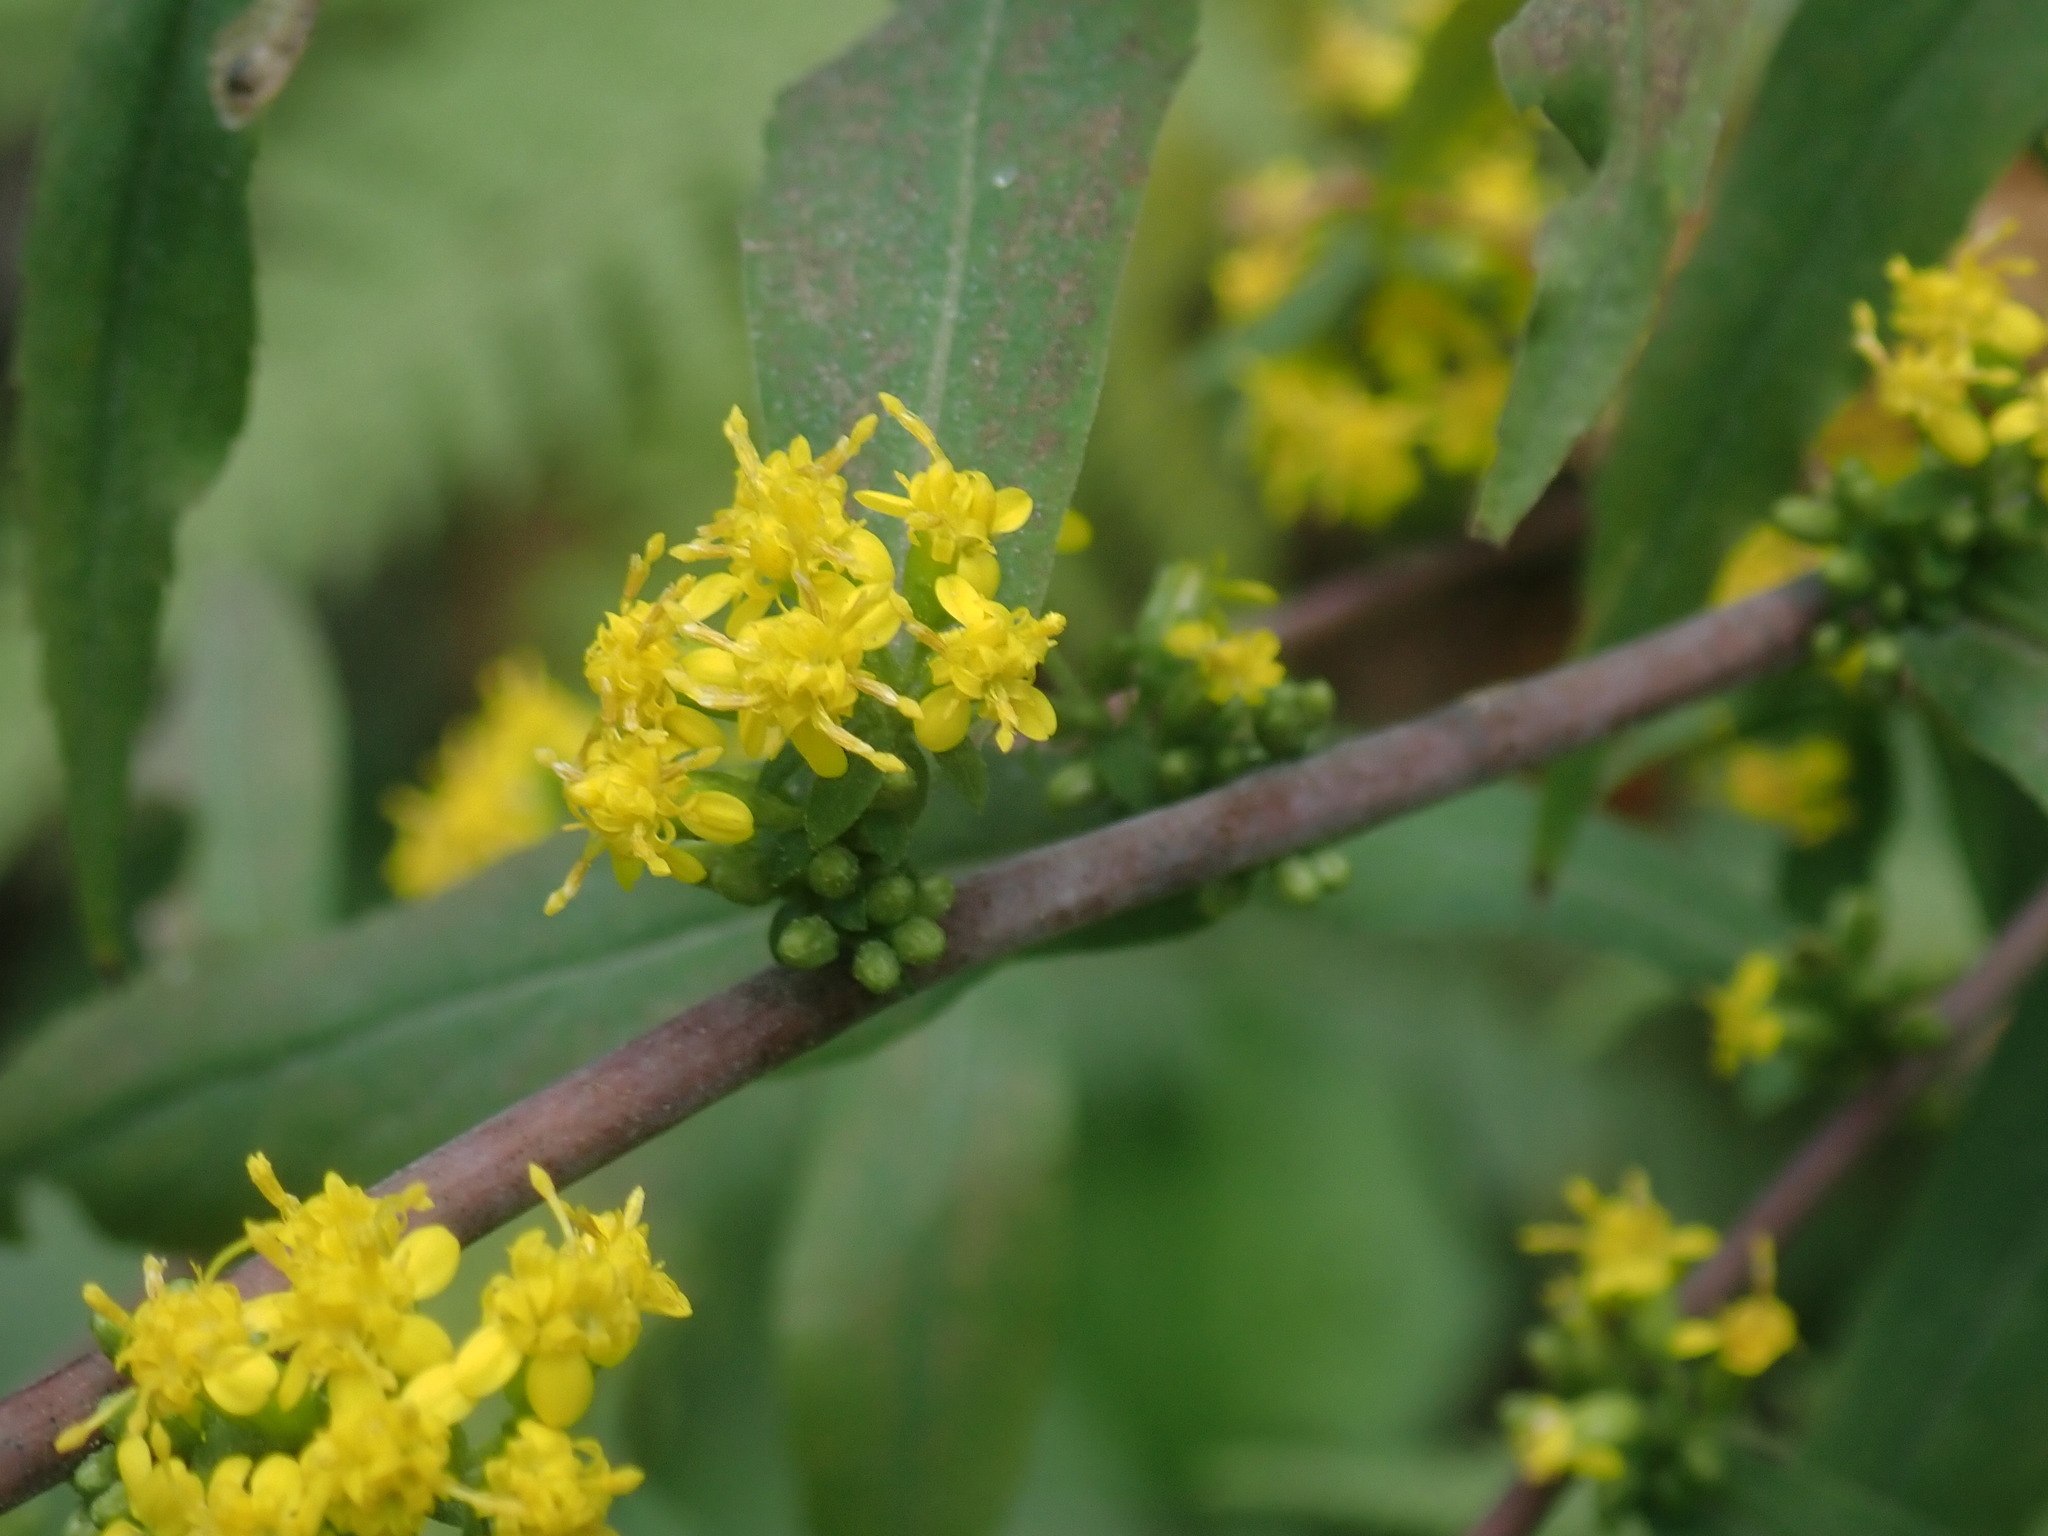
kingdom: Plantae
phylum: Tracheophyta
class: Magnoliopsida
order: Asterales
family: Asteraceae
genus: Solidago
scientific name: Solidago caesia
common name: Woodland goldenrod
